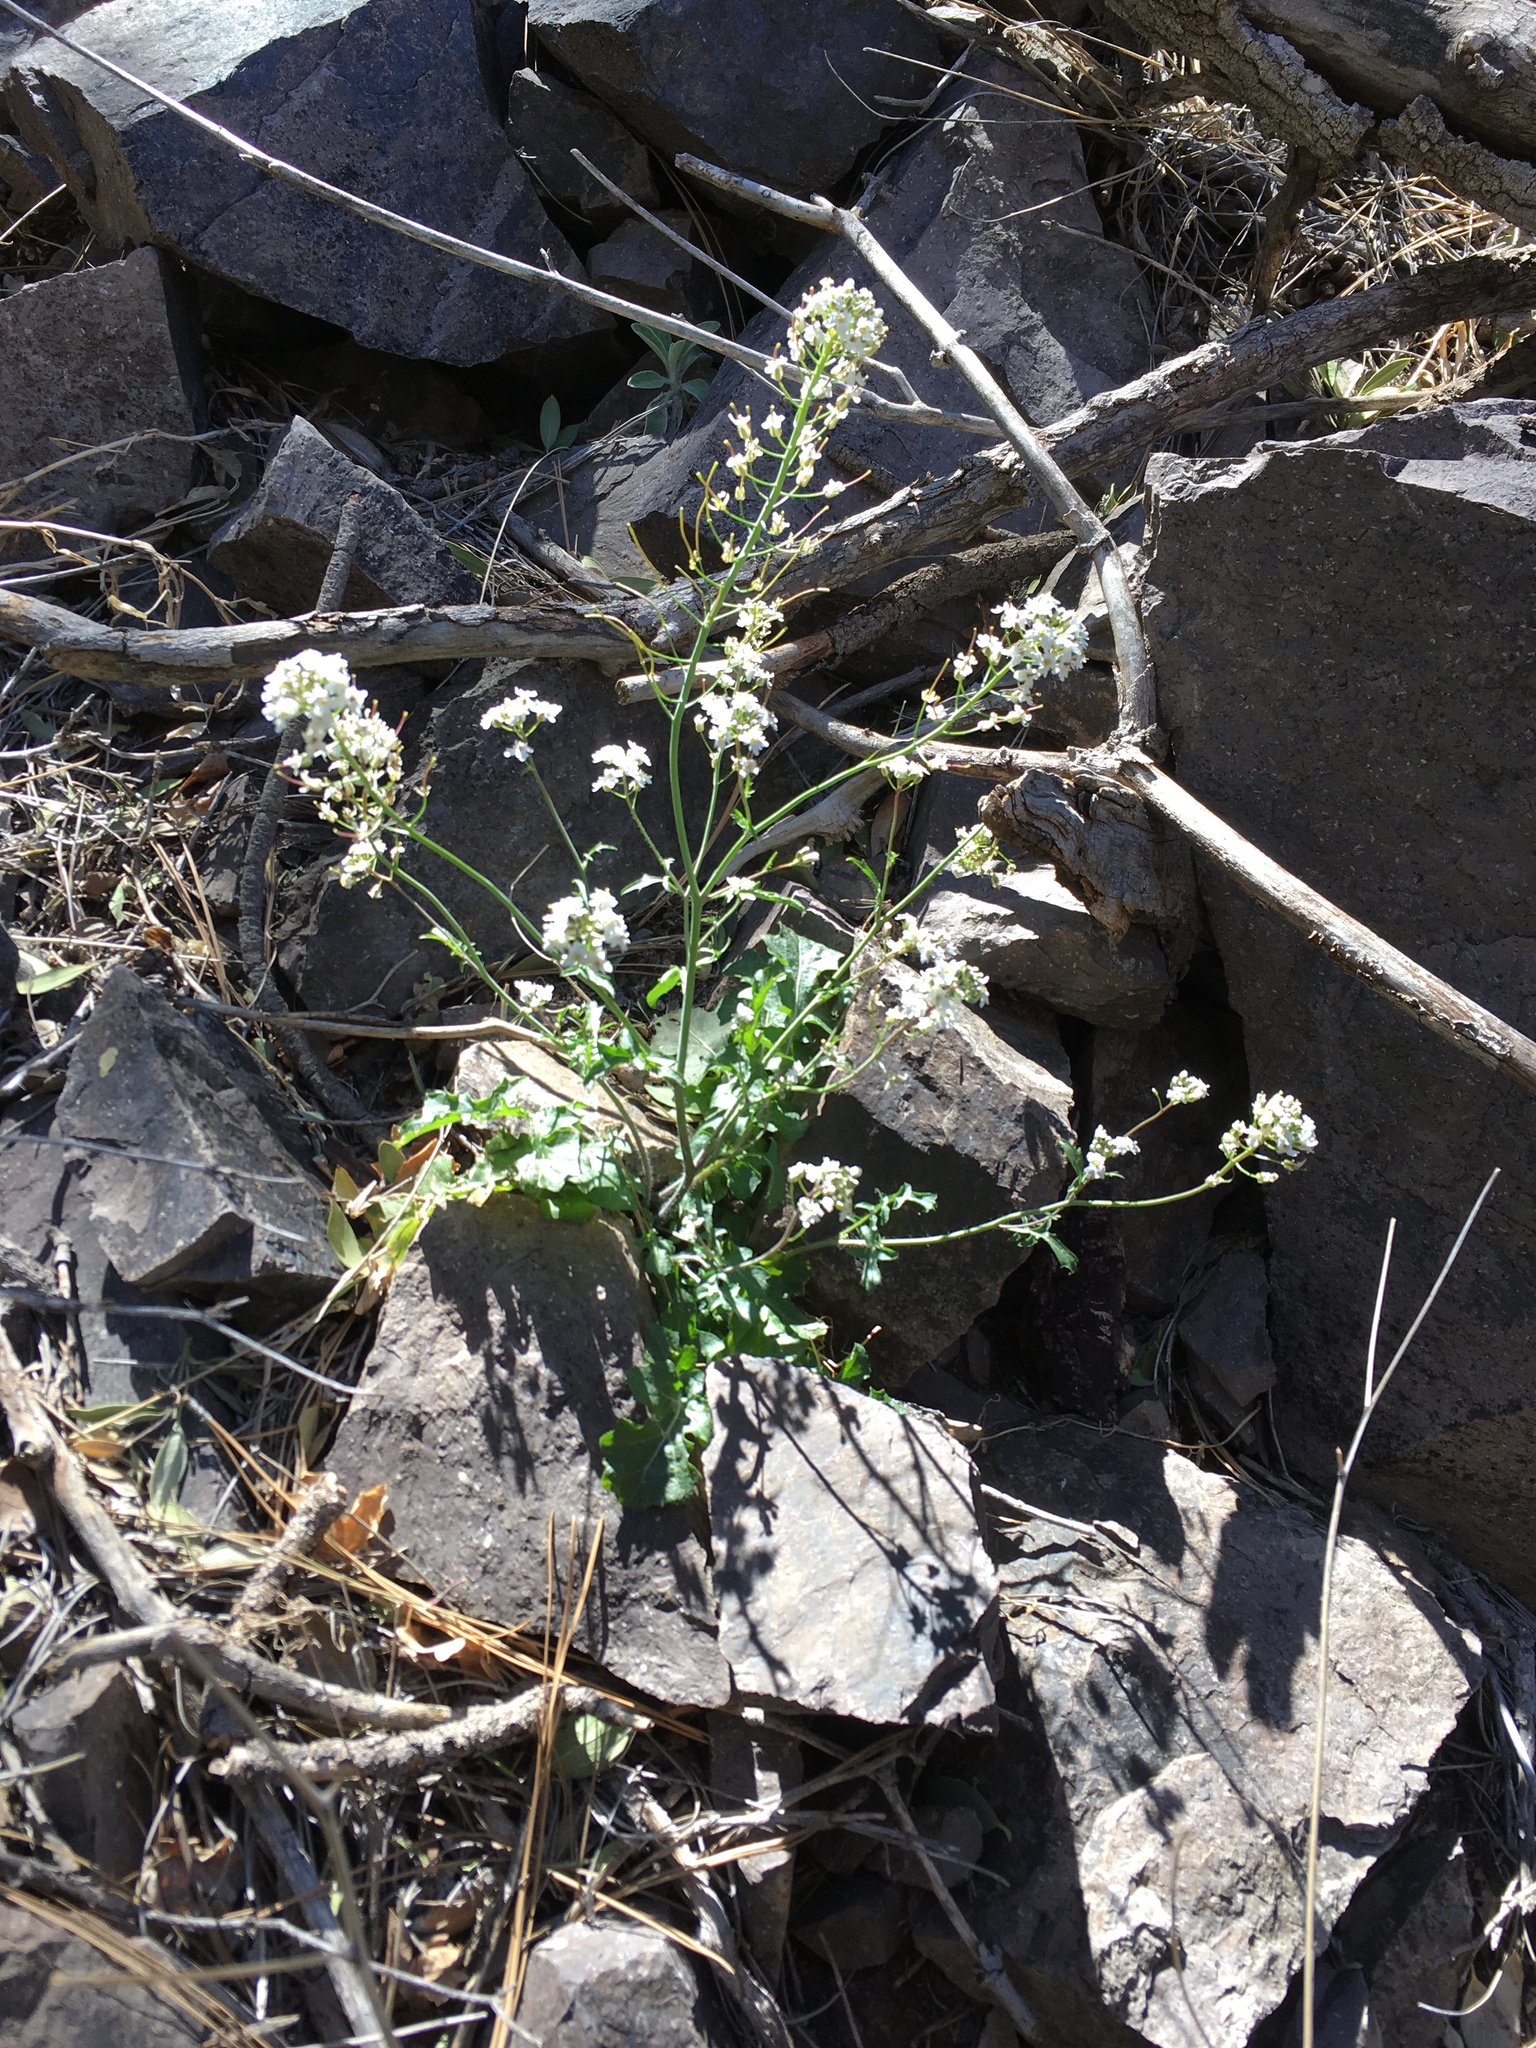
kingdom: Plantae
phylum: Tracheophyta
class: Magnoliopsida
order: Brassicales
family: Brassicaceae
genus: Dryopetalon
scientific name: Dryopetalon runcinatum
